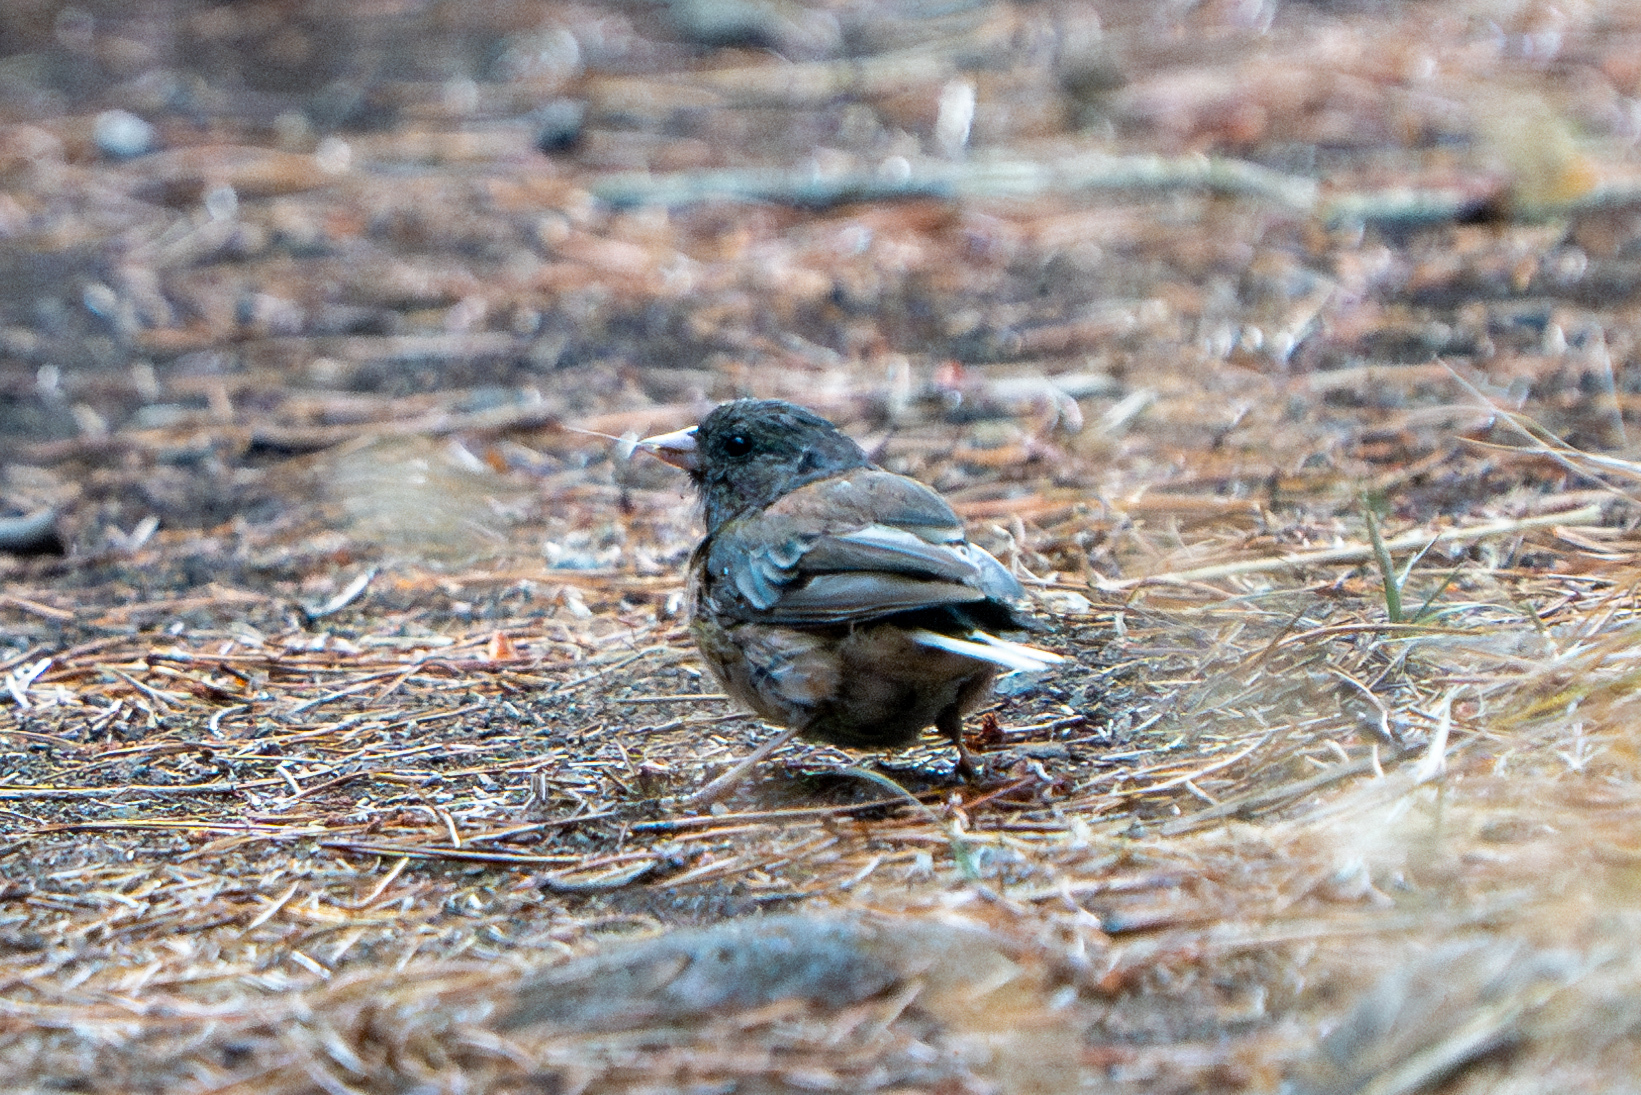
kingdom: Animalia
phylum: Chordata
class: Aves
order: Passeriformes
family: Passerellidae
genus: Junco
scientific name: Junco hyemalis
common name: Dark-eyed junco
